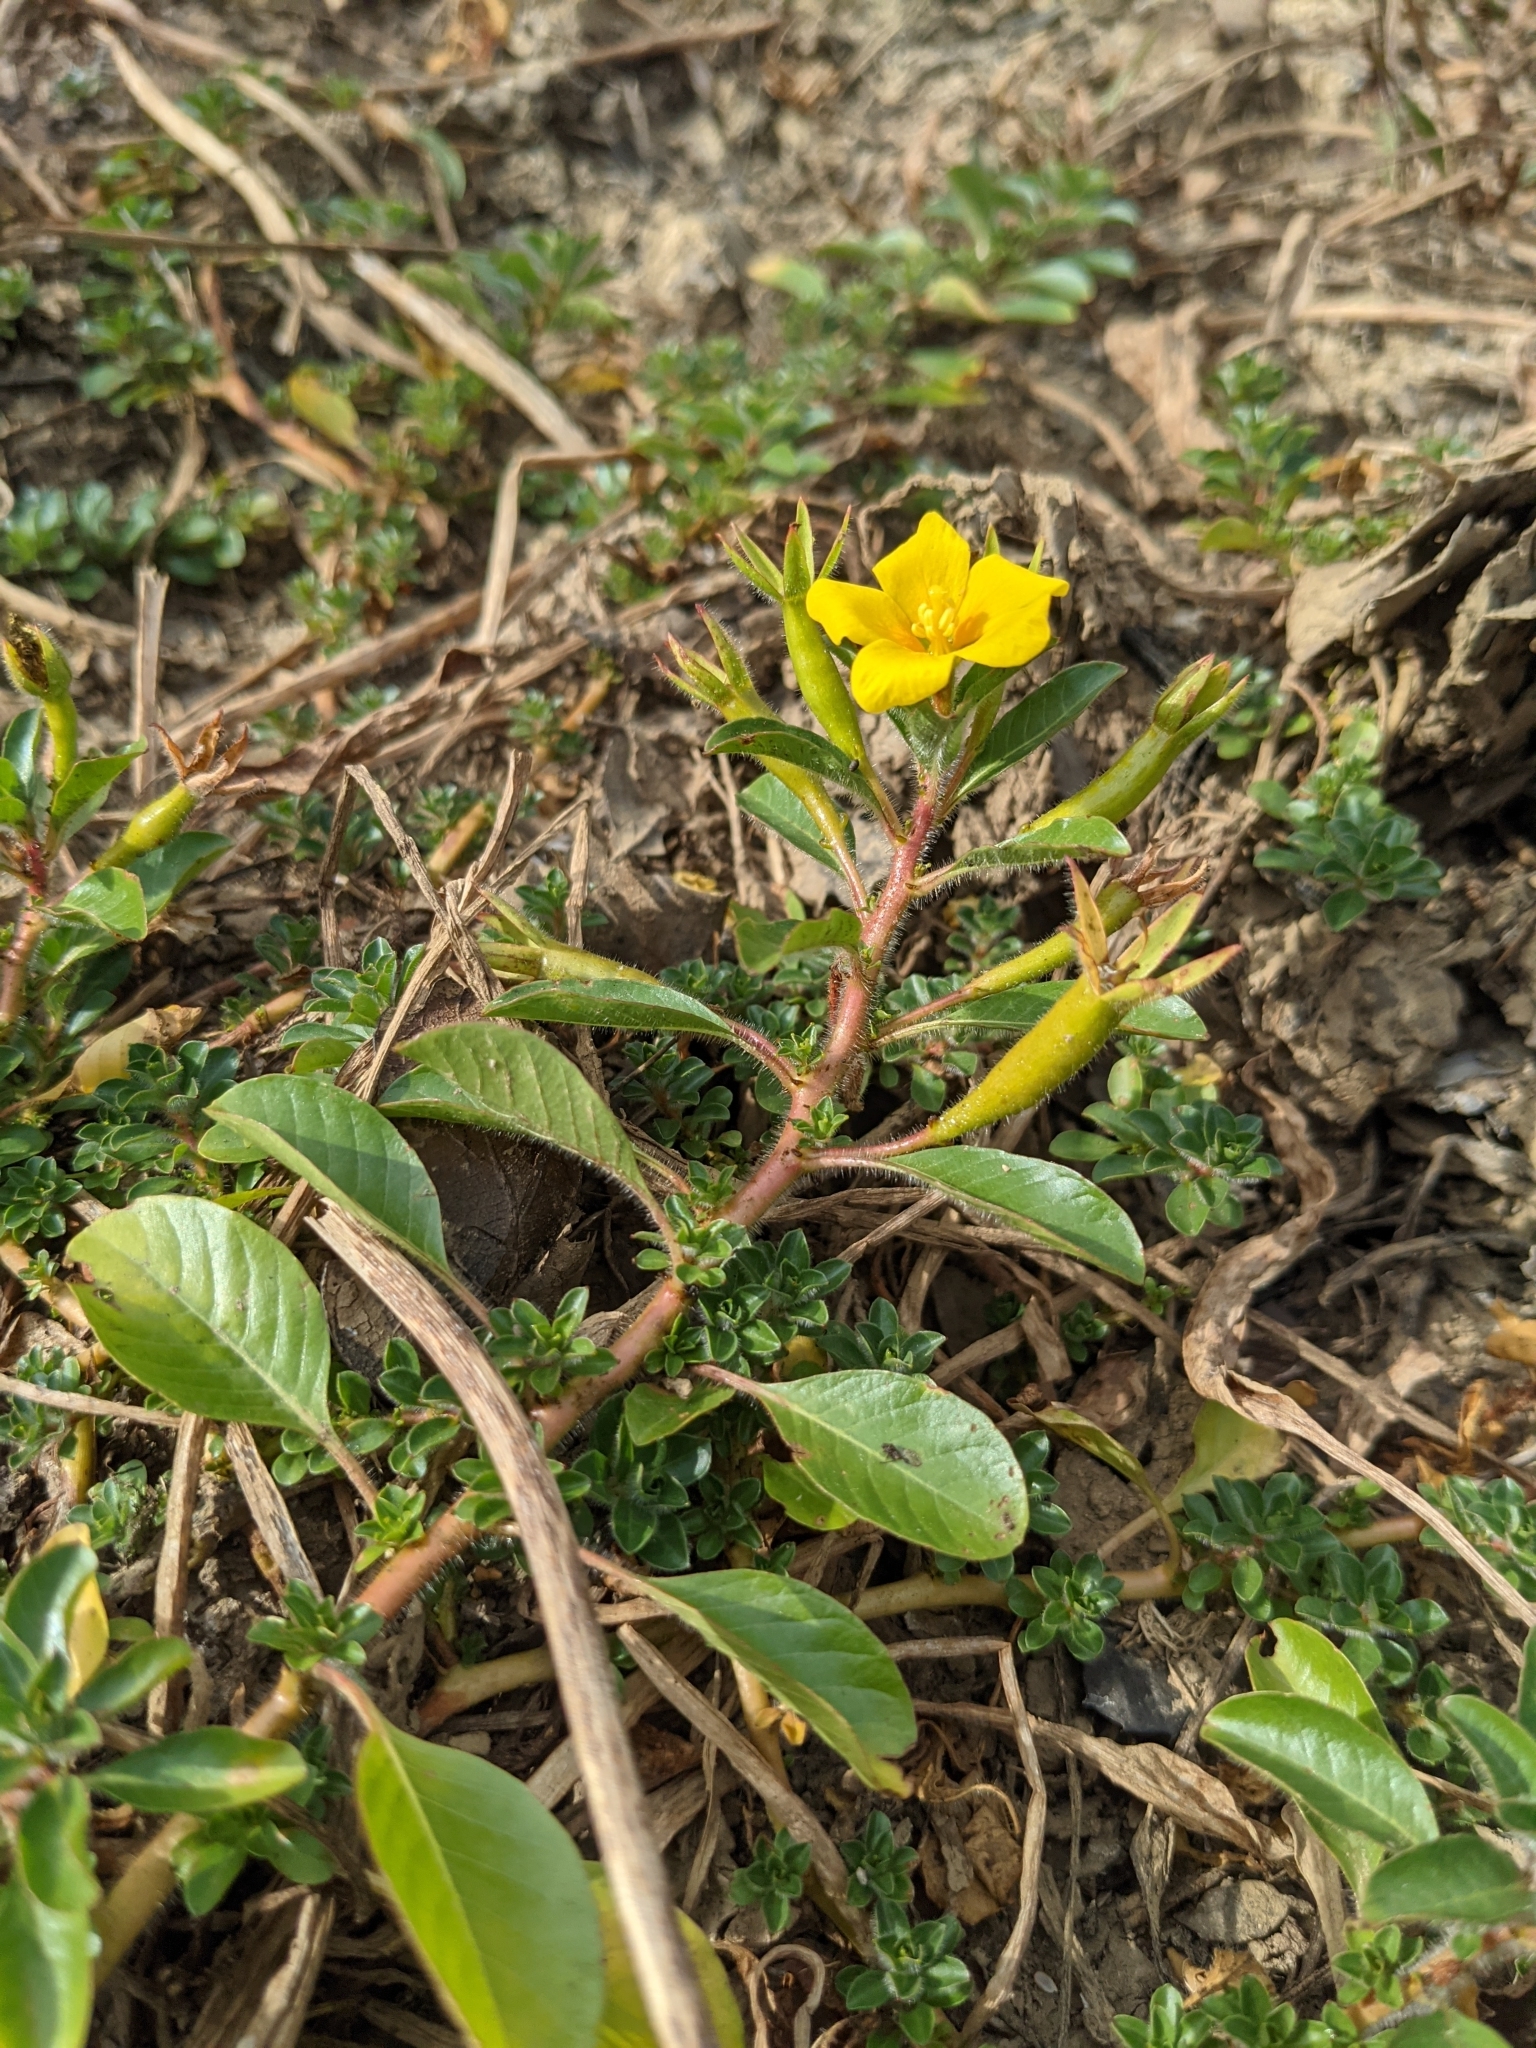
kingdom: Plantae
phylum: Tracheophyta
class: Magnoliopsida
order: Myrtales
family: Onagraceae
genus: Ludwigia
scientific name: Ludwigia peploides
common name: Floating primrose-willow
